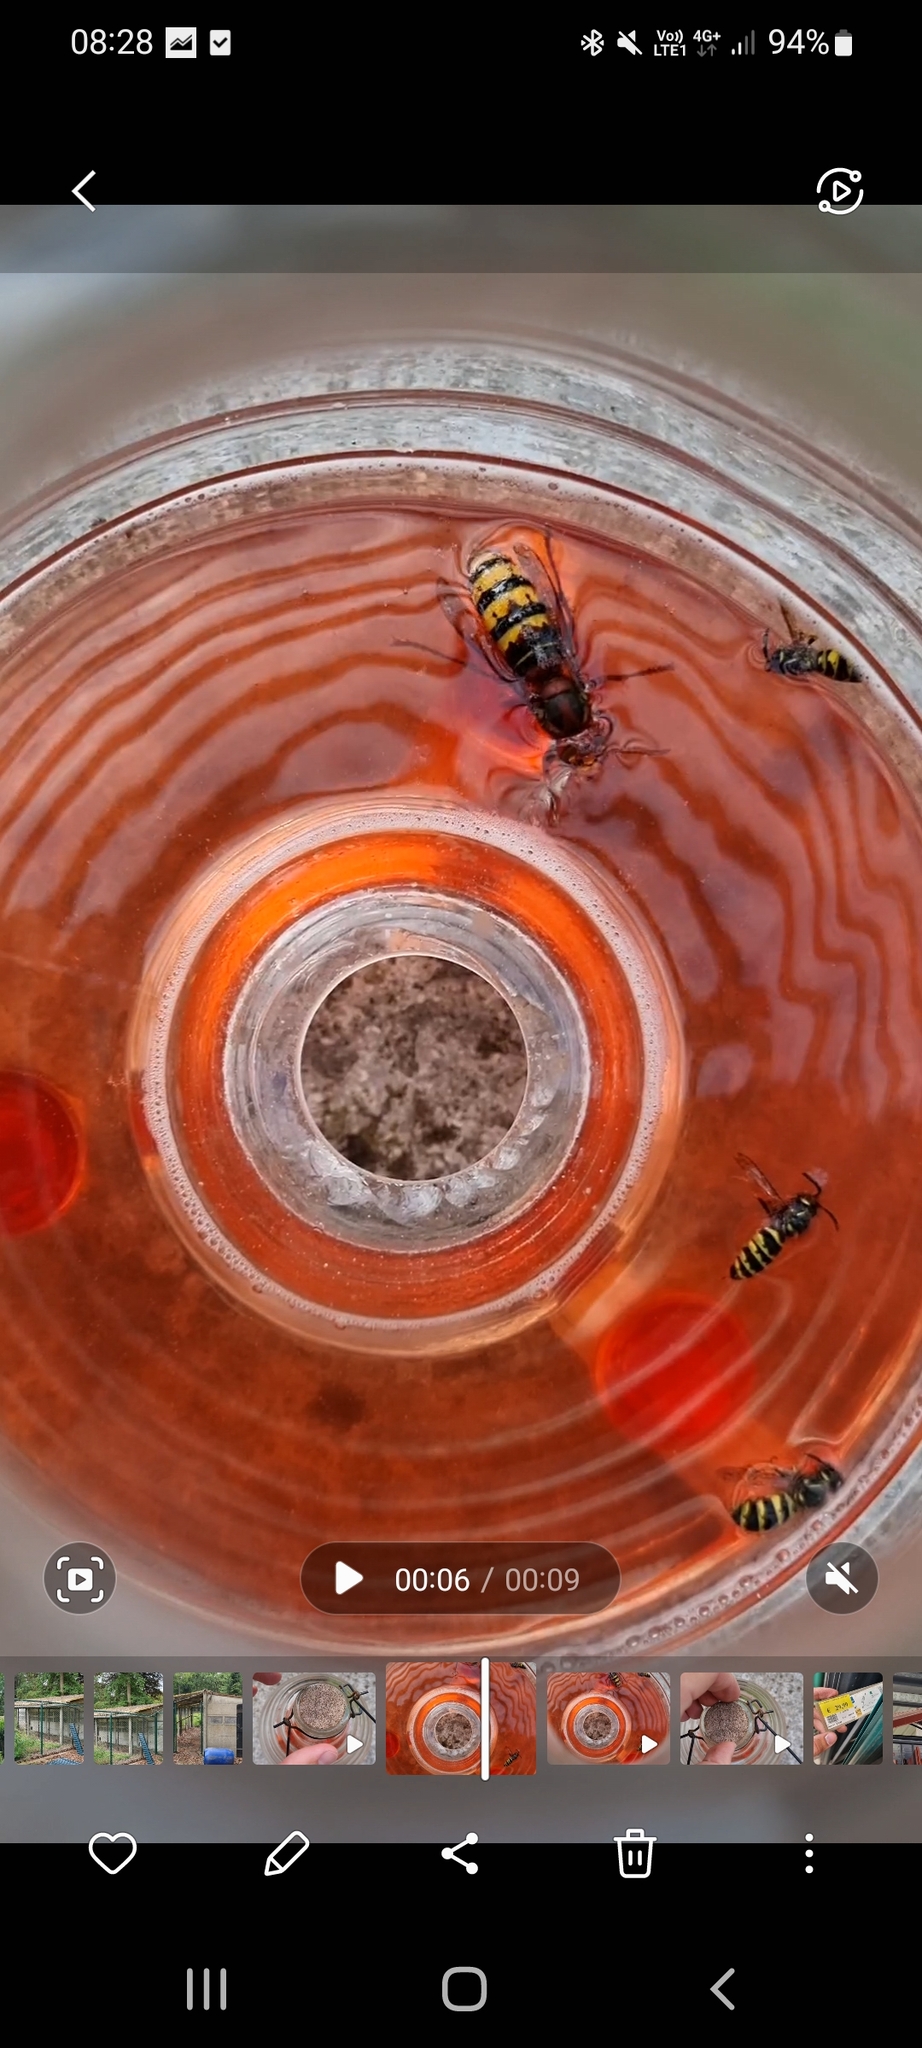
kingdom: Animalia
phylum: Arthropoda
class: Insecta
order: Hymenoptera
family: Vespidae
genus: Vespa
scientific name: Vespa crabro
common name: Hornet
